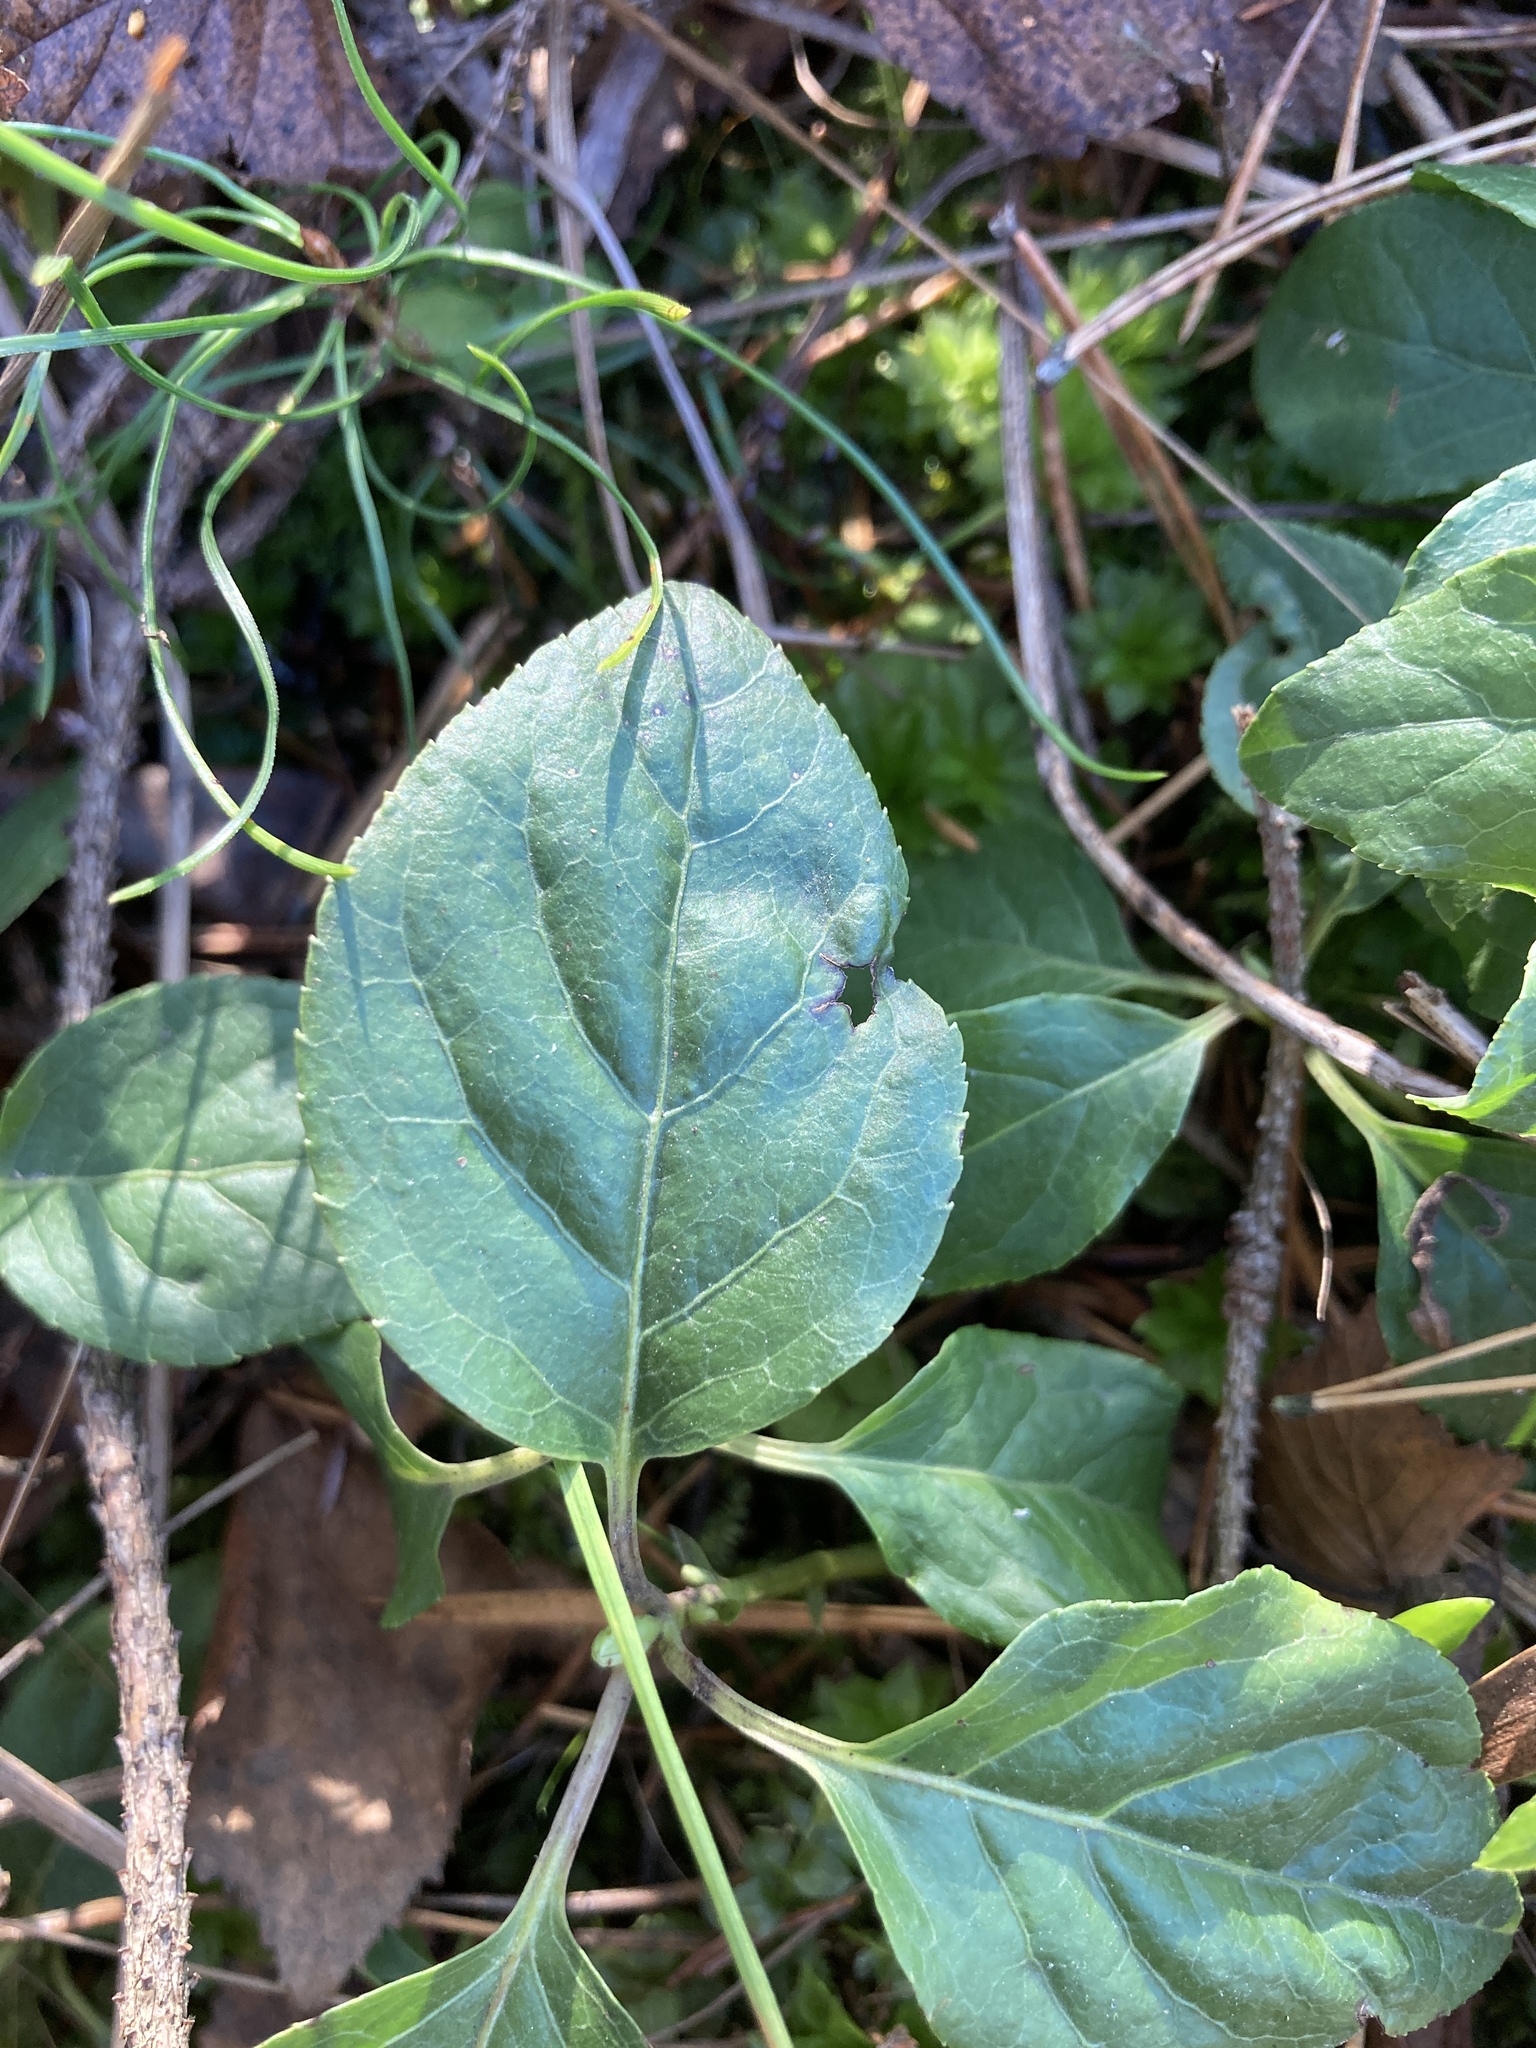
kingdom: Plantae
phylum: Tracheophyta
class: Magnoliopsida
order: Ericales
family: Ericaceae
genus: Orthilia
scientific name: Orthilia secunda
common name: One-sided orthilia
